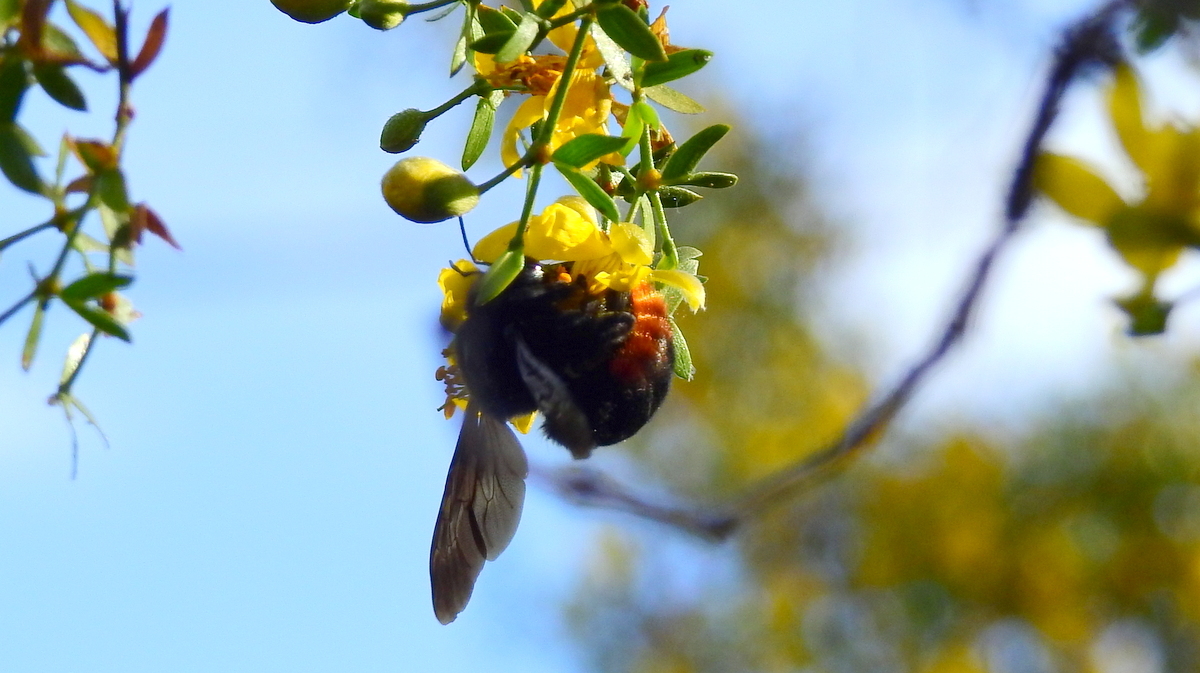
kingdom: Animalia
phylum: Arthropoda
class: Insecta
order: Hymenoptera
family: Apidae
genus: Xylocopa
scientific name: Xylocopa augusti
